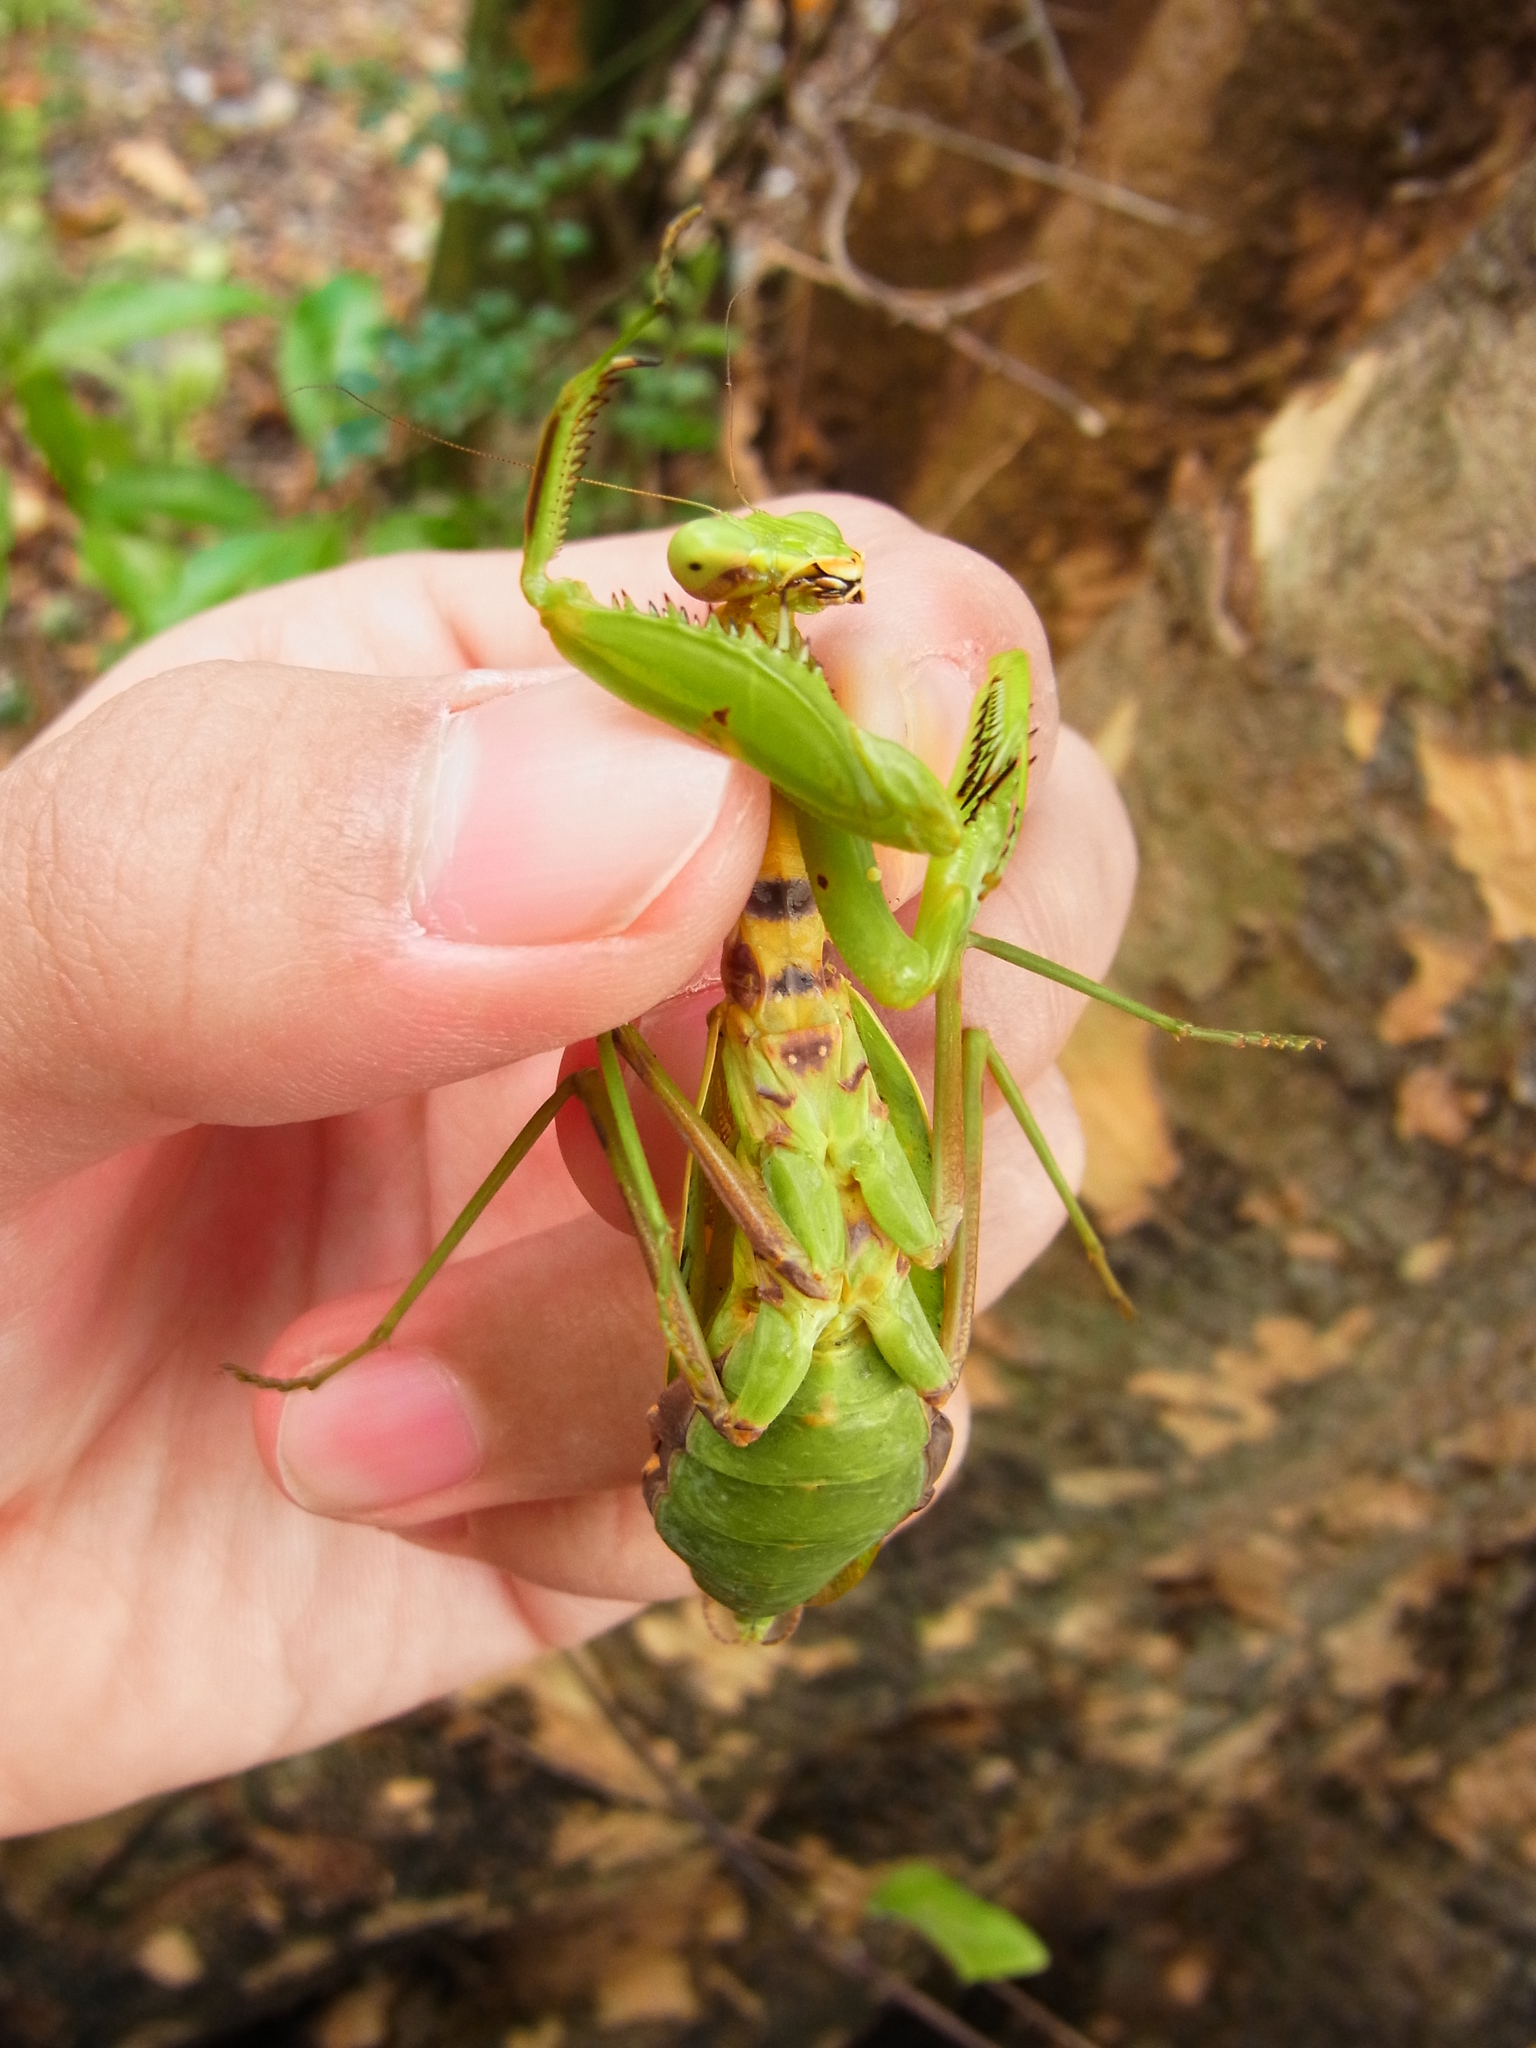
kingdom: Animalia
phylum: Arthropoda
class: Insecta
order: Mantodea
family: Mantidae
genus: Hierodula
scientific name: Hierodula patellifera
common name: Asian mantis
